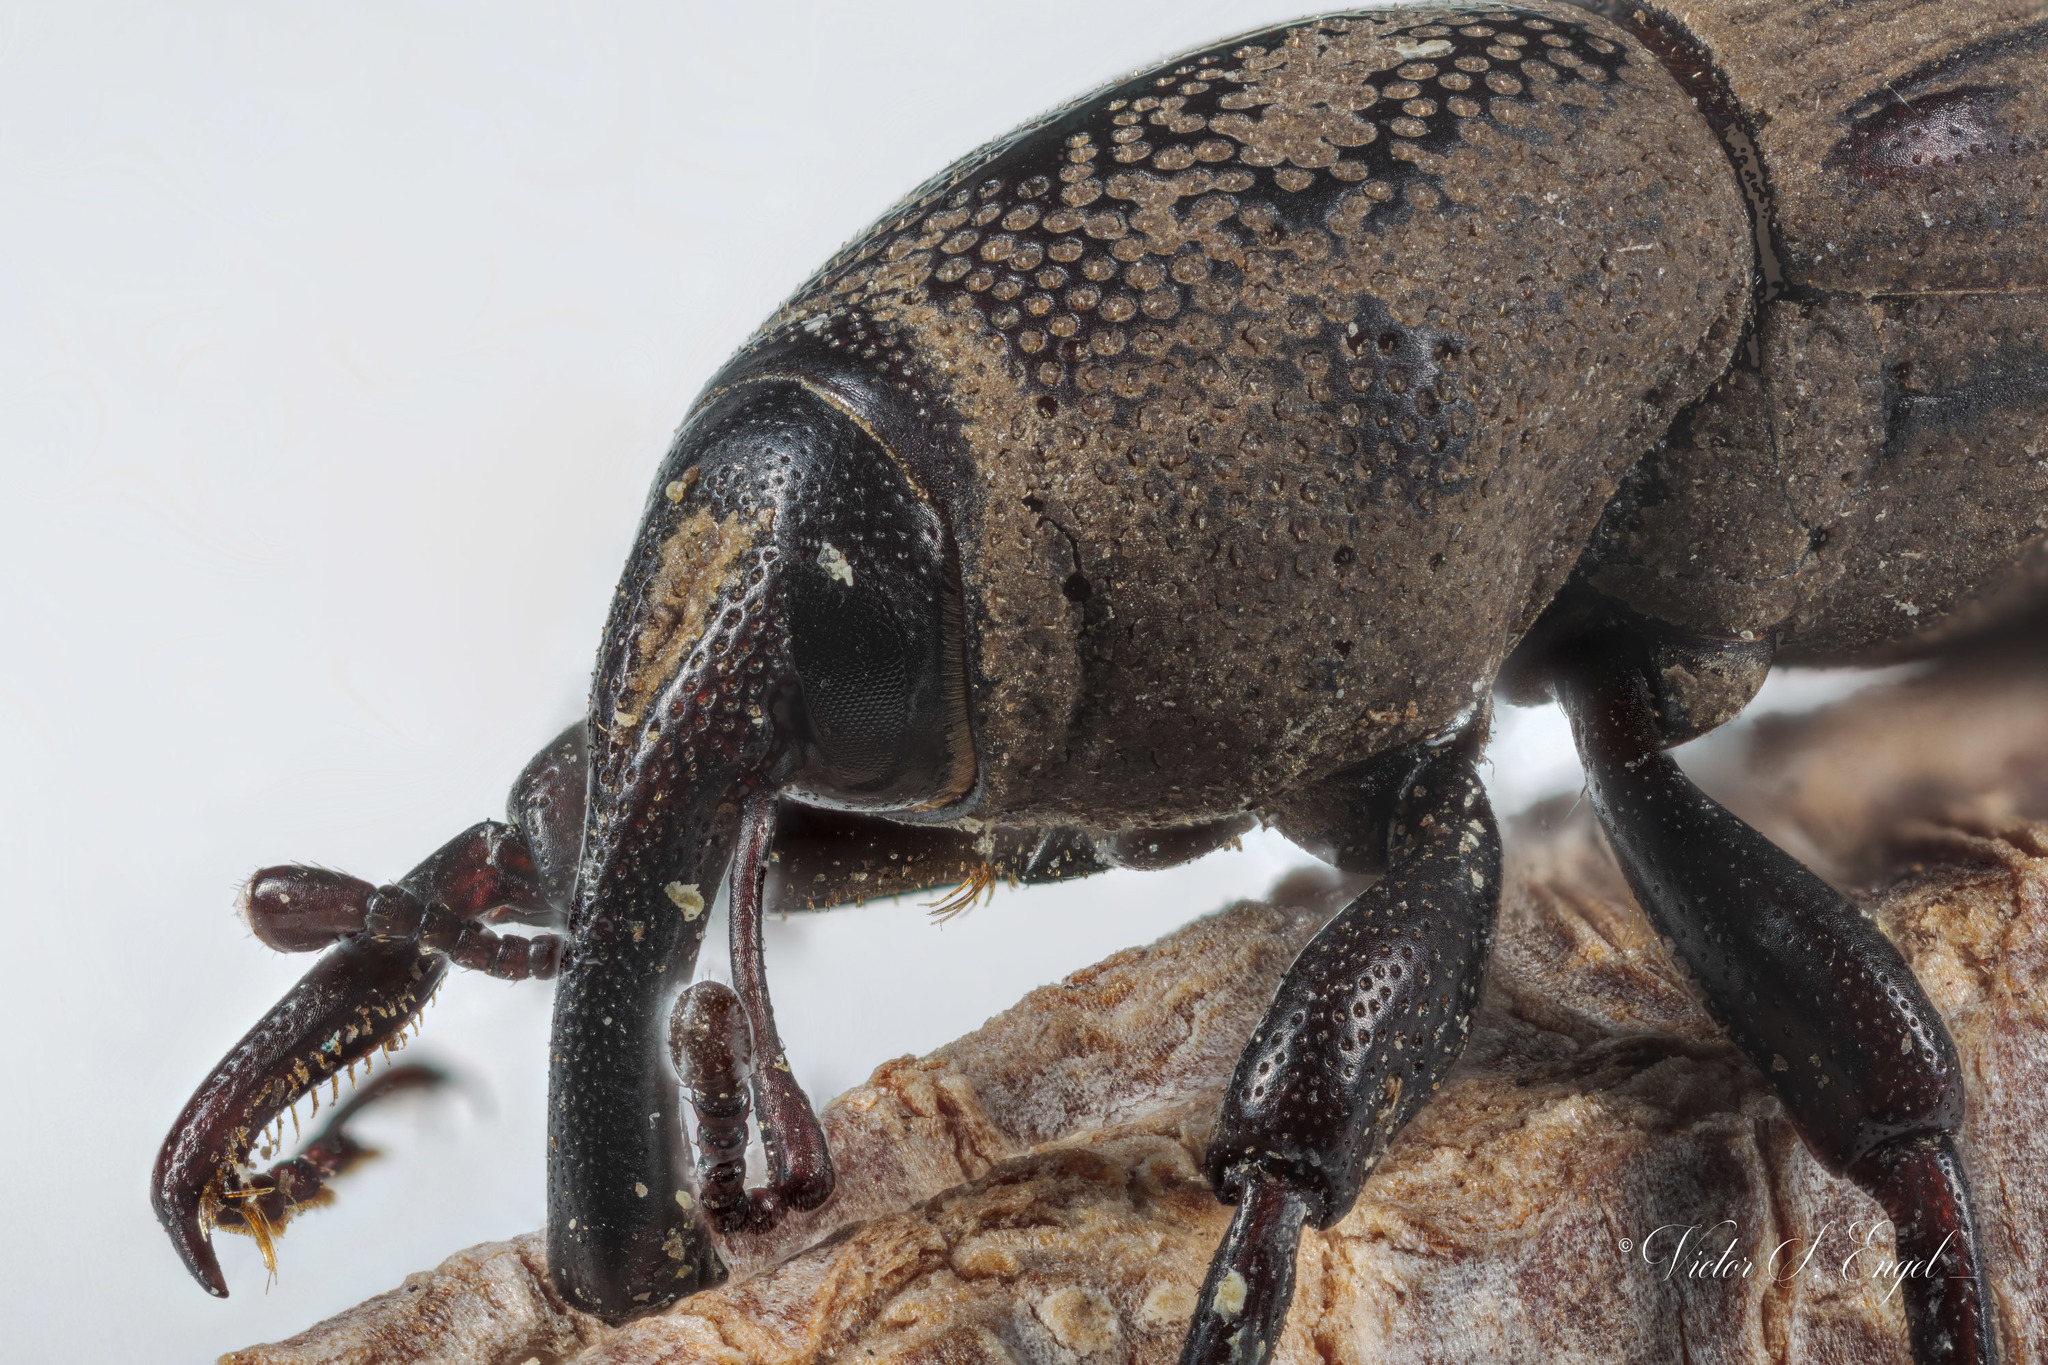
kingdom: Animalia
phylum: Arthropoda
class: Insecta
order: Coleoptera
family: Dryophthoridae
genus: Sphenophorus
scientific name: Sphenophorus coesifrons
